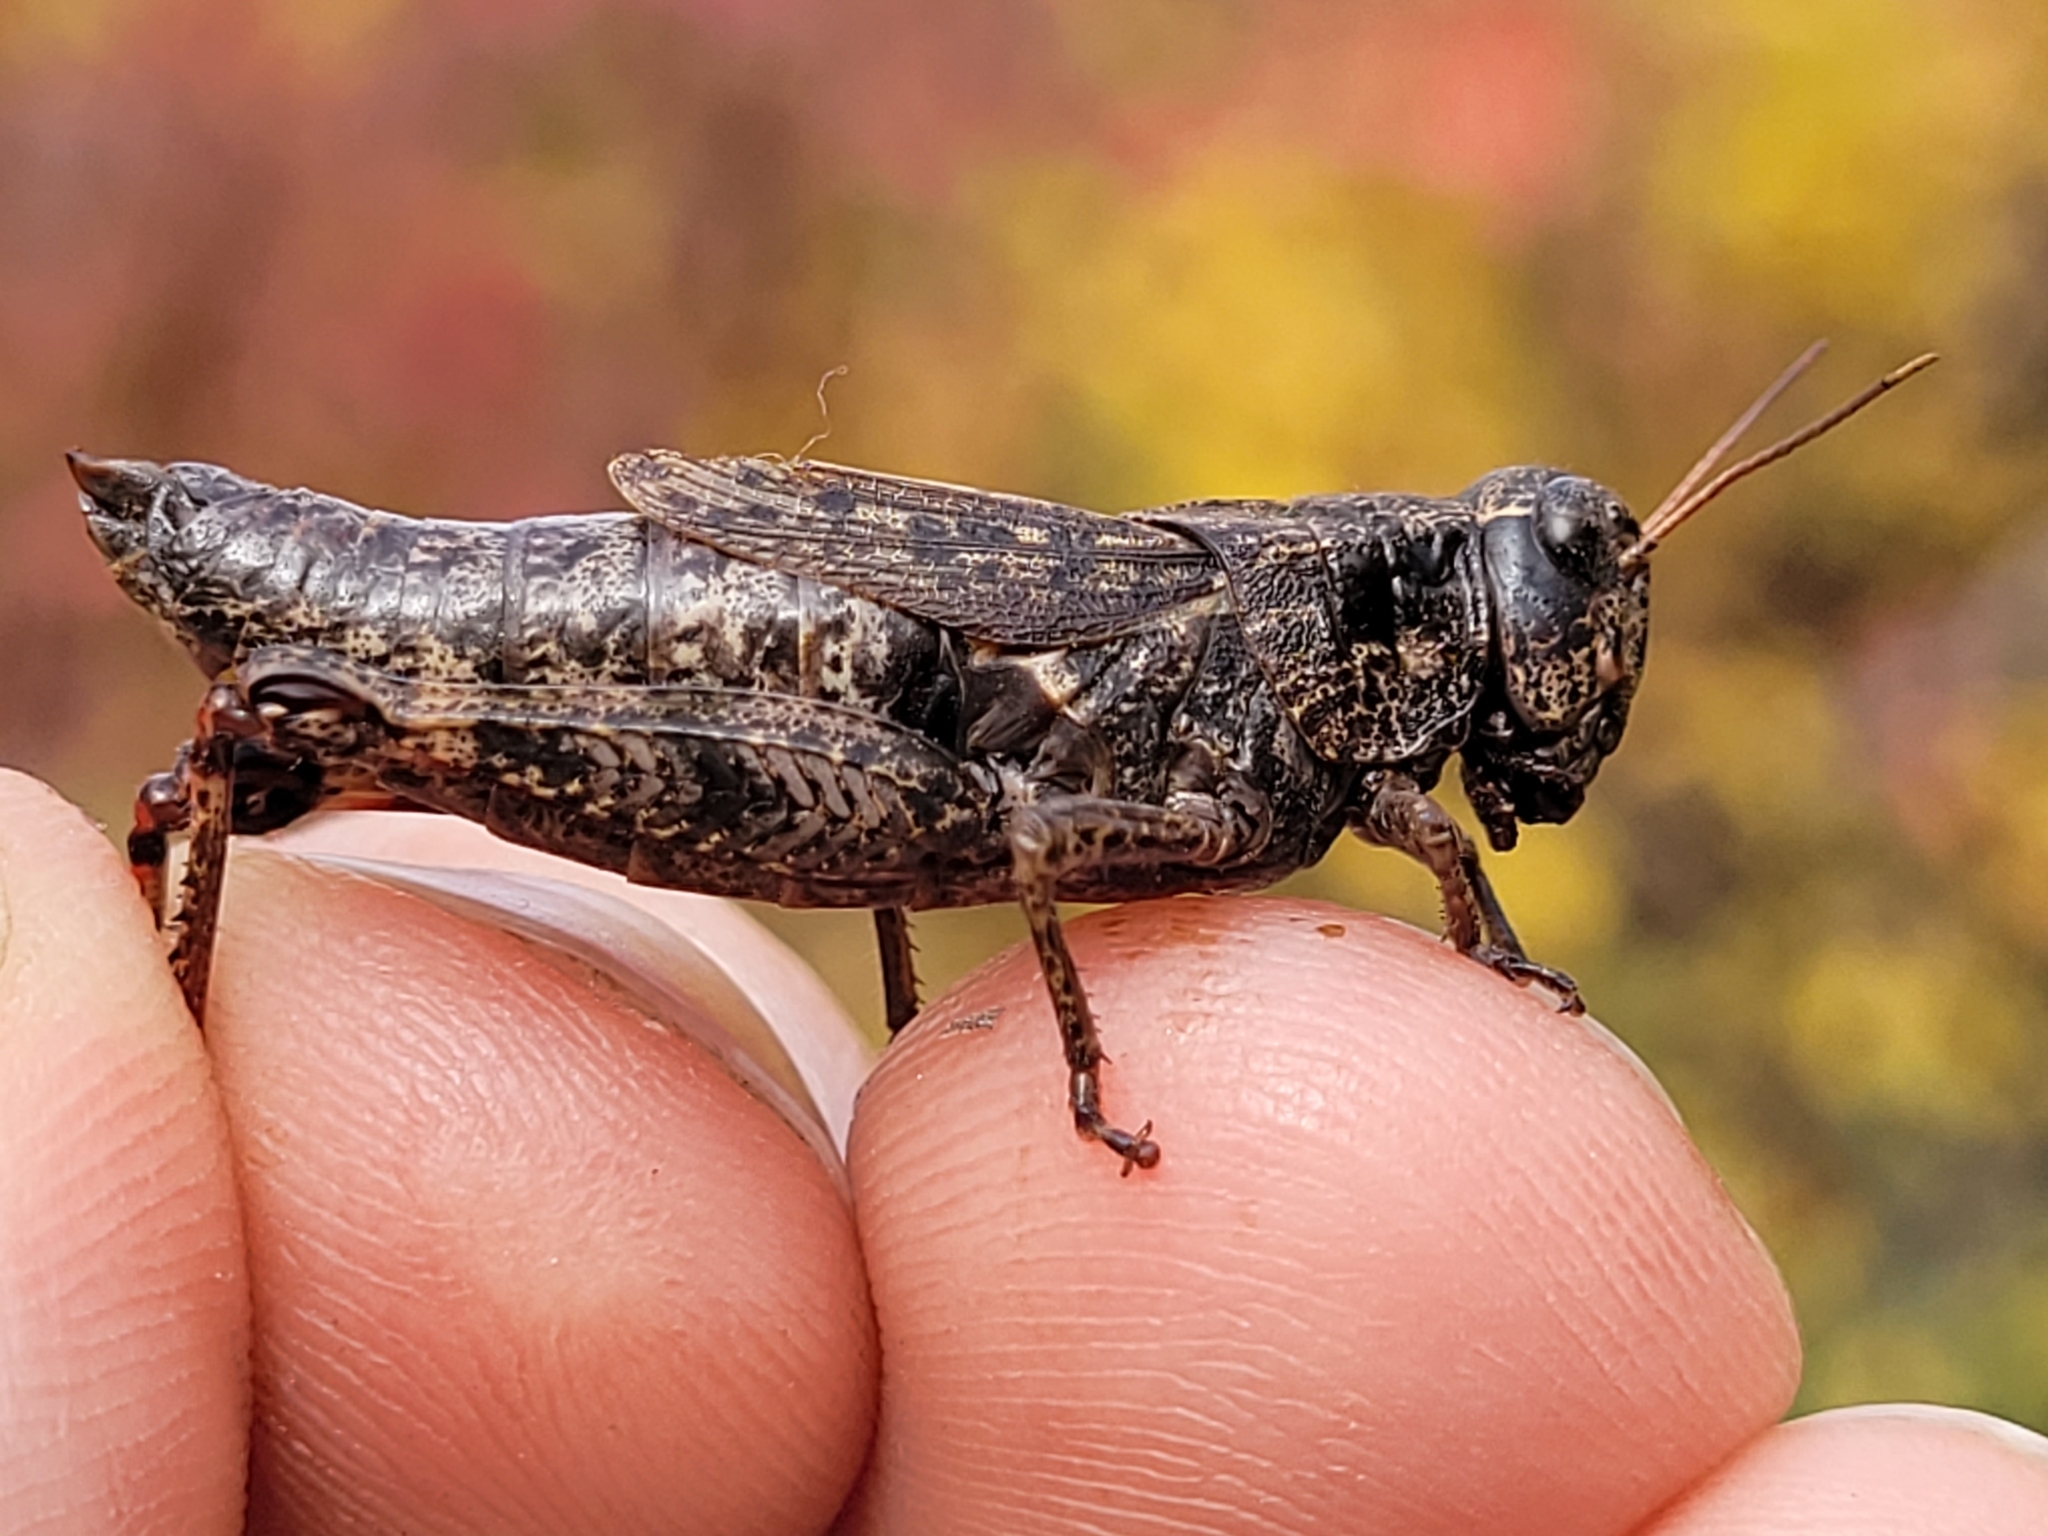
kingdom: Animalia
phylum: Arthropoda
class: Insecta
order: Orthoptera
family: Acrididae
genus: Melanoplus
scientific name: Melanoplus huroni
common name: Huron short-winged locust
